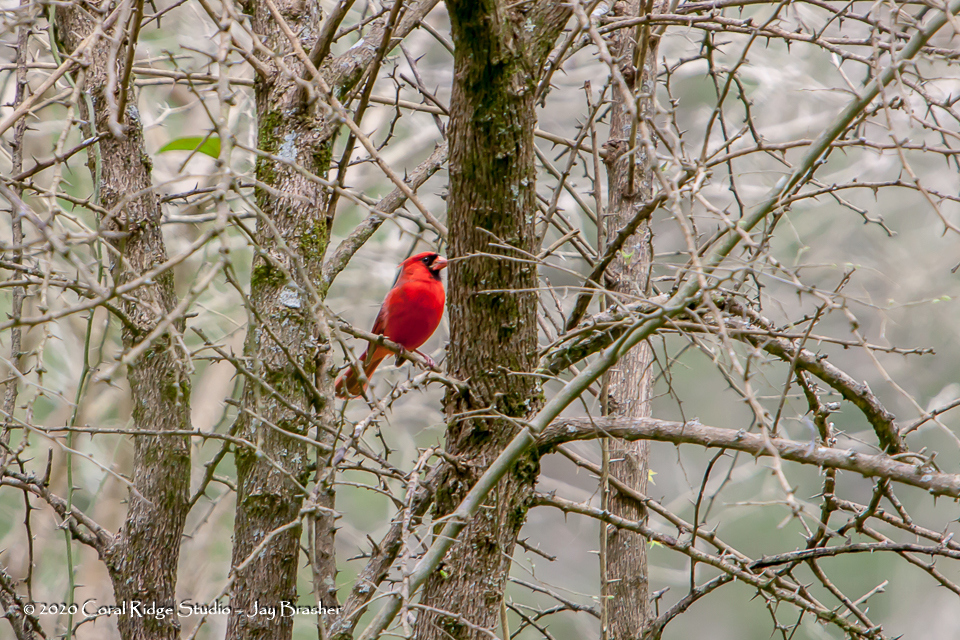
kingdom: Animalia
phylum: Chordata
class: Aves
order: Passeriformes
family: Cardinalidae
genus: Cardinalis
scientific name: Cardinalis cardinalis
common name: Northern cardinal
